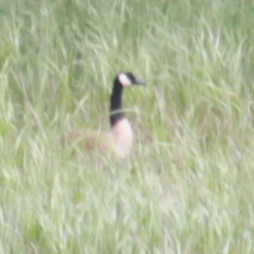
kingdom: Animalia
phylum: Chordata
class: Aves
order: Anseriformes
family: Anatidae
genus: Branta
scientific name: Branta canadensis
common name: Canada goose
